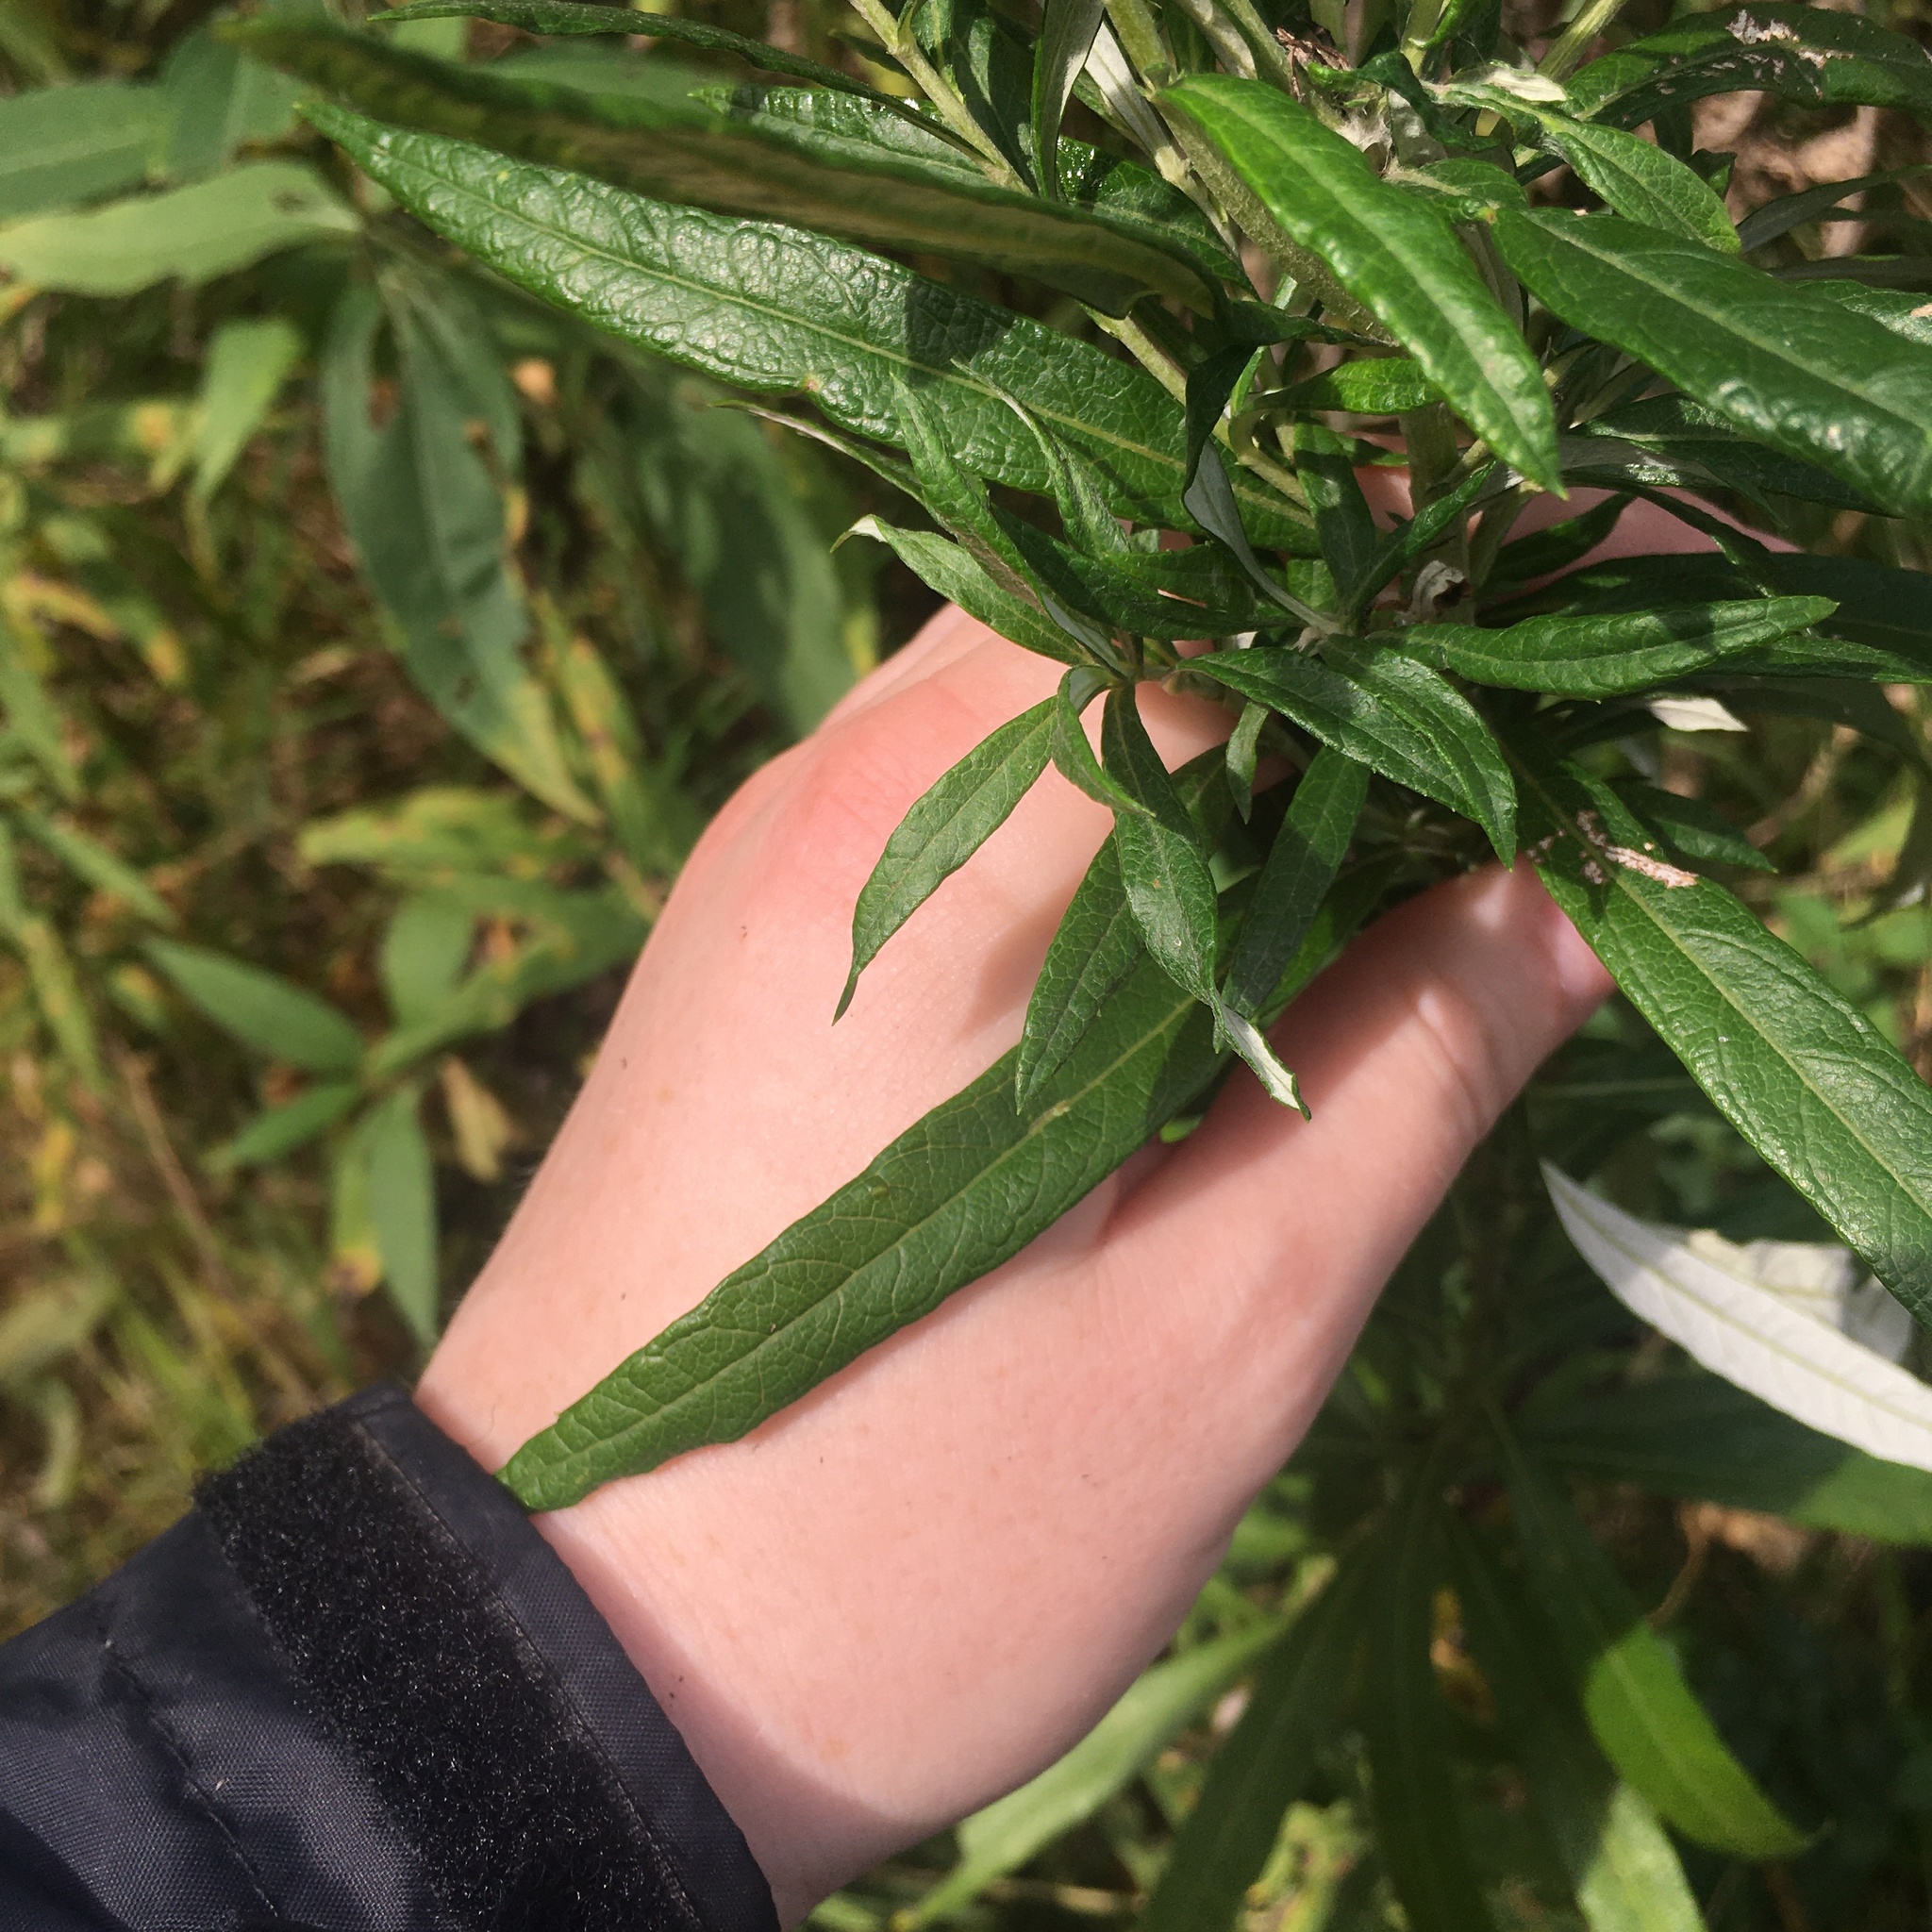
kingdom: Plantae
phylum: Tracheophyta
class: Magnoliopsida
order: Asterales
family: Asteraceae
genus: Artemisia
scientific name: Artemisia serrata
